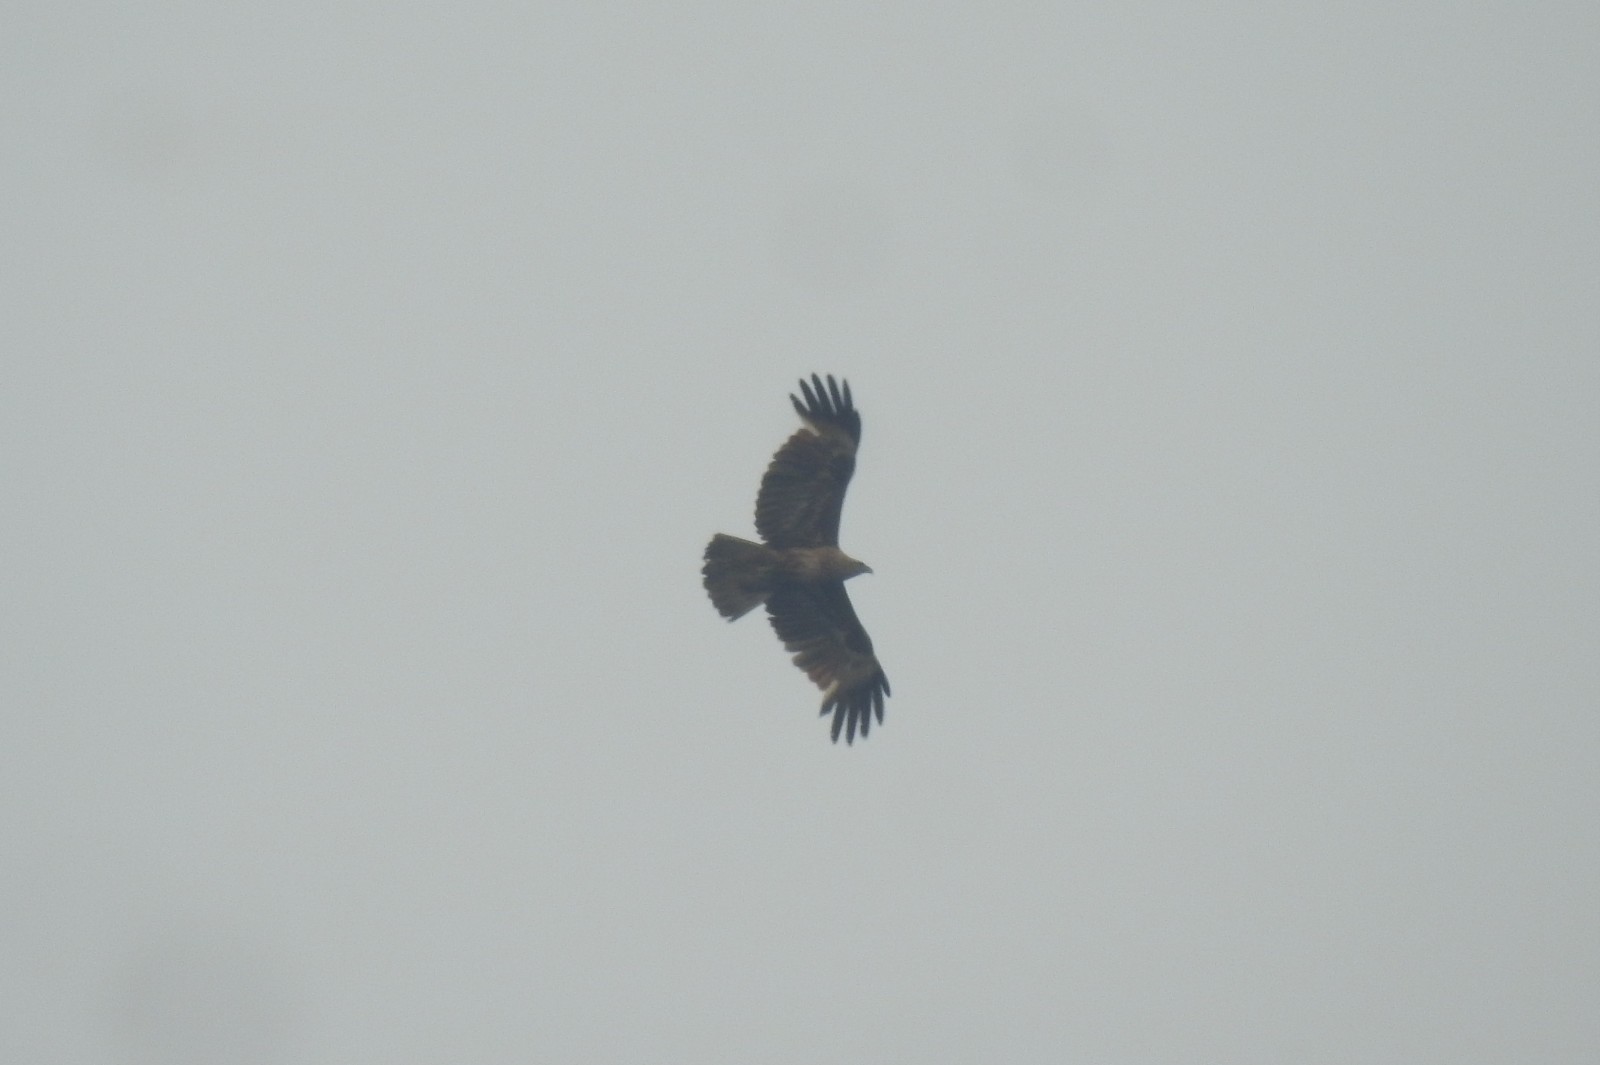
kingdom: Animalia
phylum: Chordata
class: Aves
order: Accipitriformes
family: Accipitridae
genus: Haliastur
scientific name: Haliastur indus
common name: Brahminy kite
